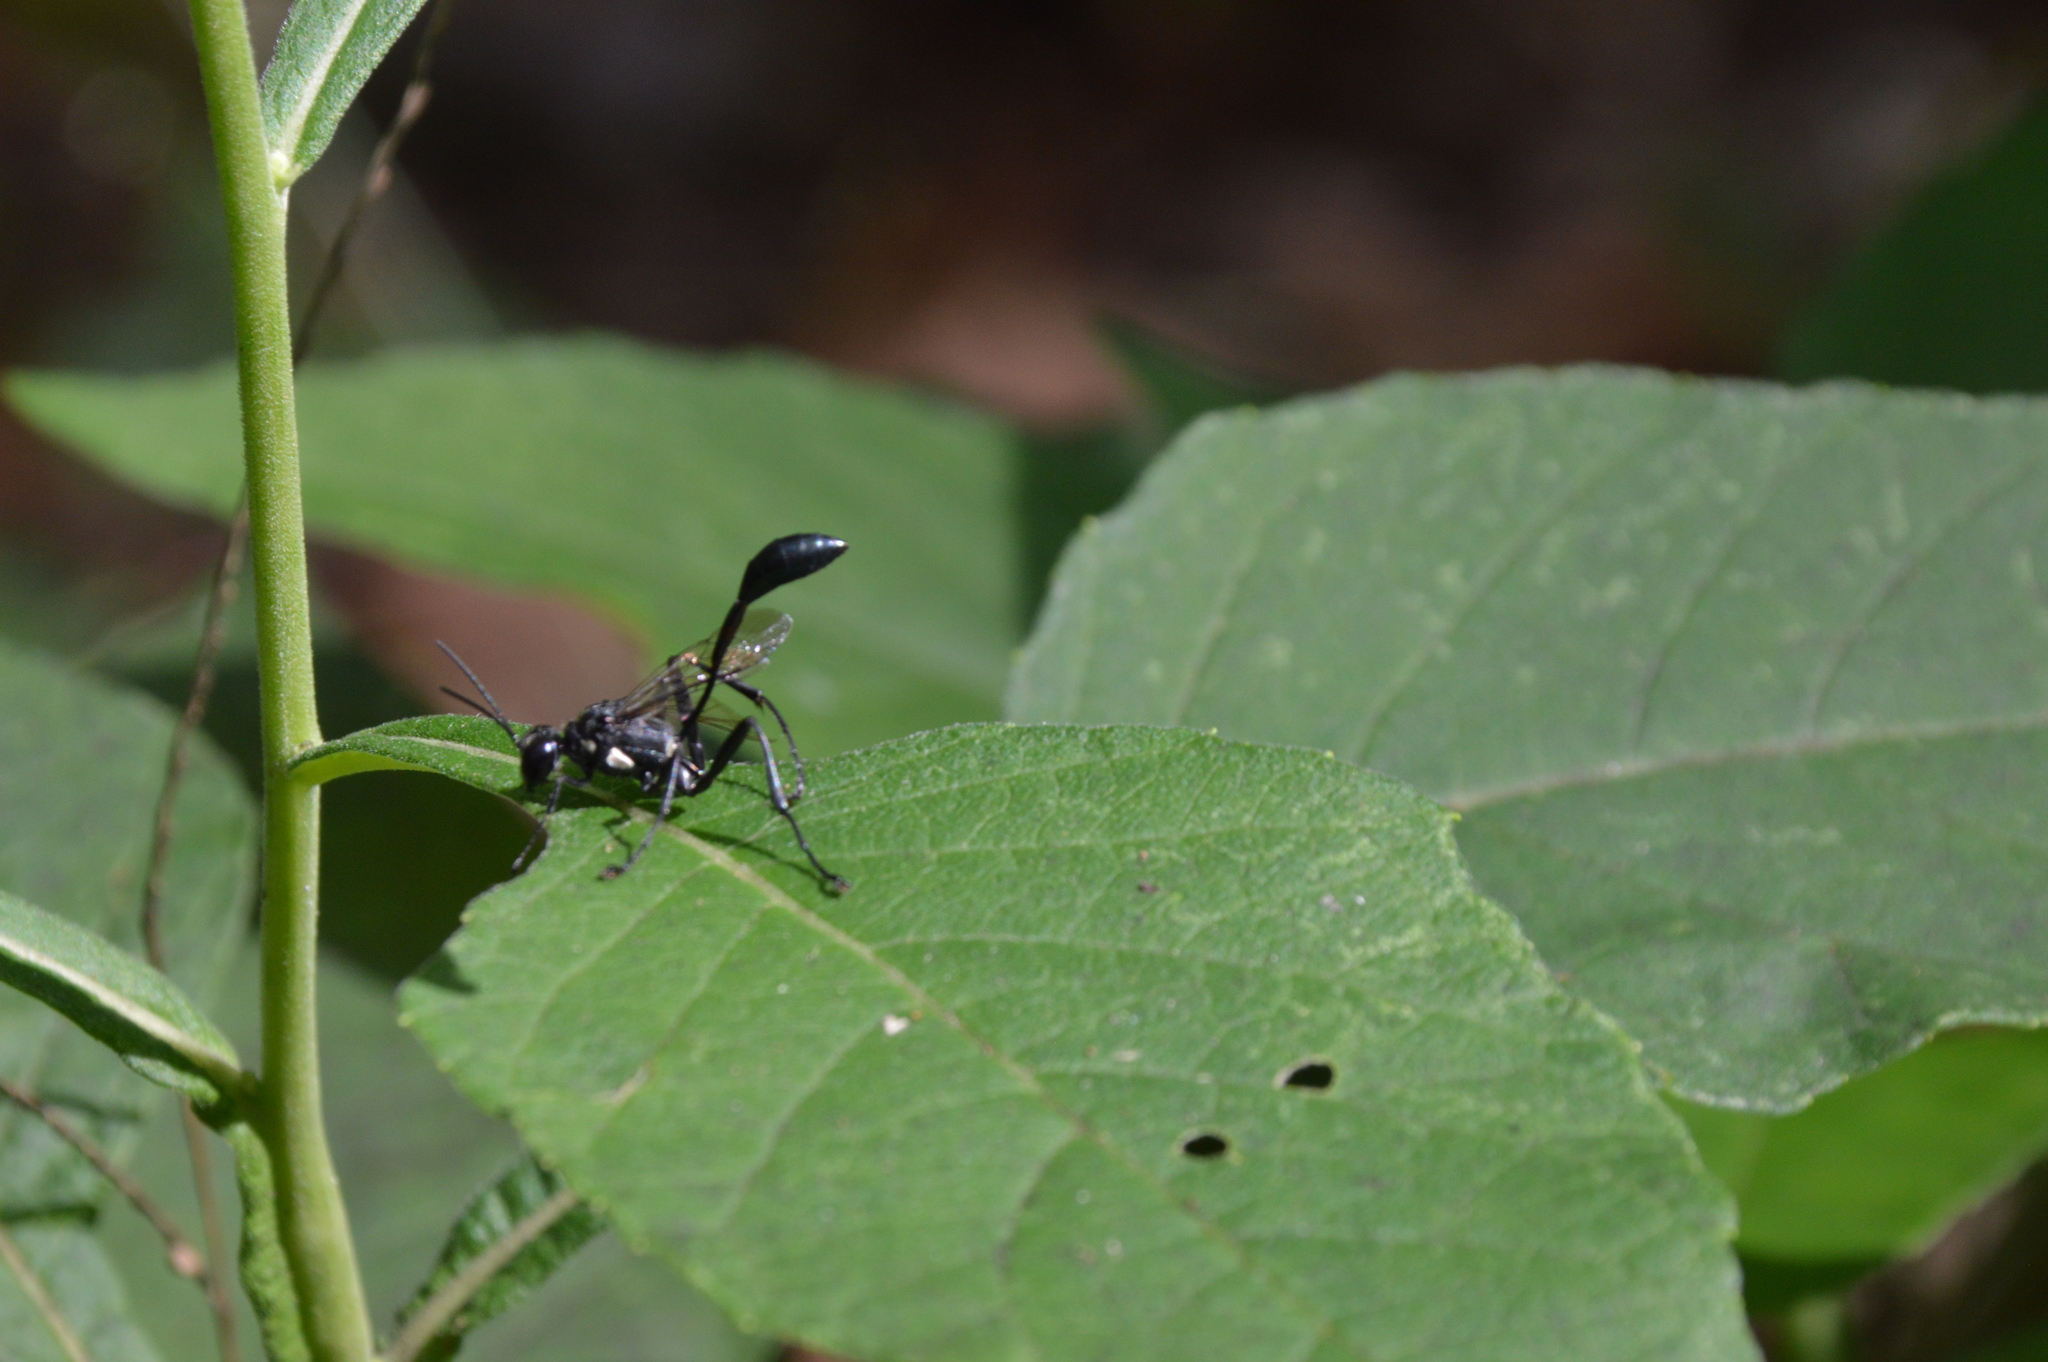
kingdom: Animalia
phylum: Arthropoda
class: Insecta
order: Hymenoptera
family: Sphecidae
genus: Eremnophila
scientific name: Eremnophila aureonotata
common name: Gold-marked thread-waisted wasp
